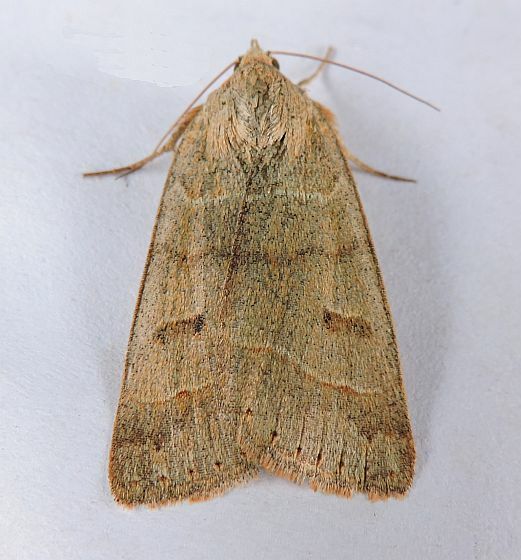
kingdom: Animalia
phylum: Arthropoda
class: Insecta
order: Lepidoptera
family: Erebidae
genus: Phoberia
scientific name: Phoberia atomaris
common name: Common oak moth
